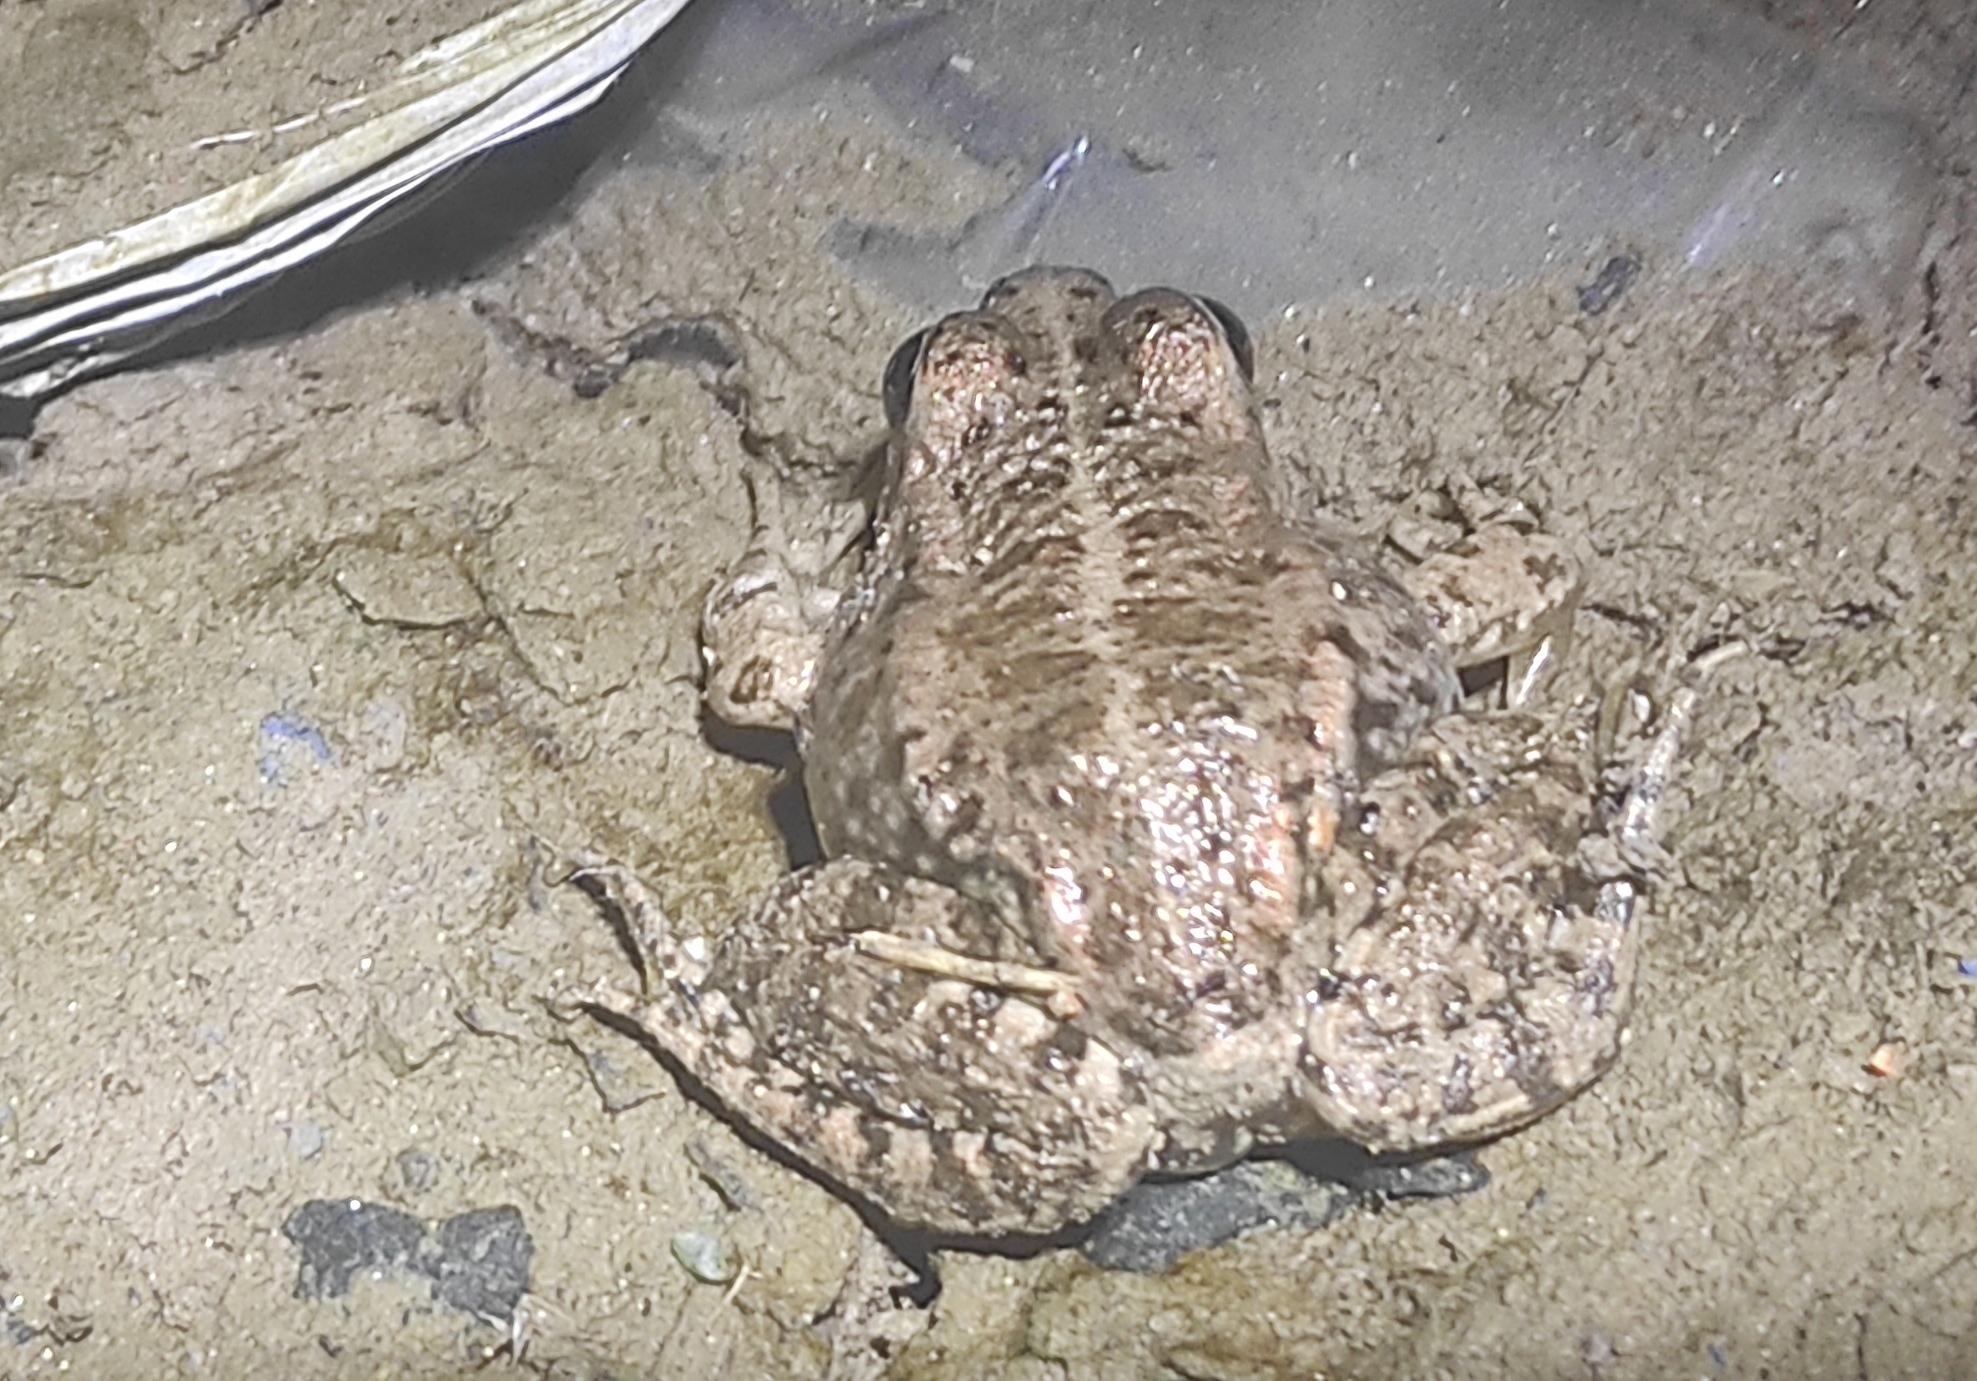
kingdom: Animalia
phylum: Chordata
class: Amphibia
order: Anura
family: Ranidae
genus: Pelophylax
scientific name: Pelophylax perezi
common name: Perez's frog
